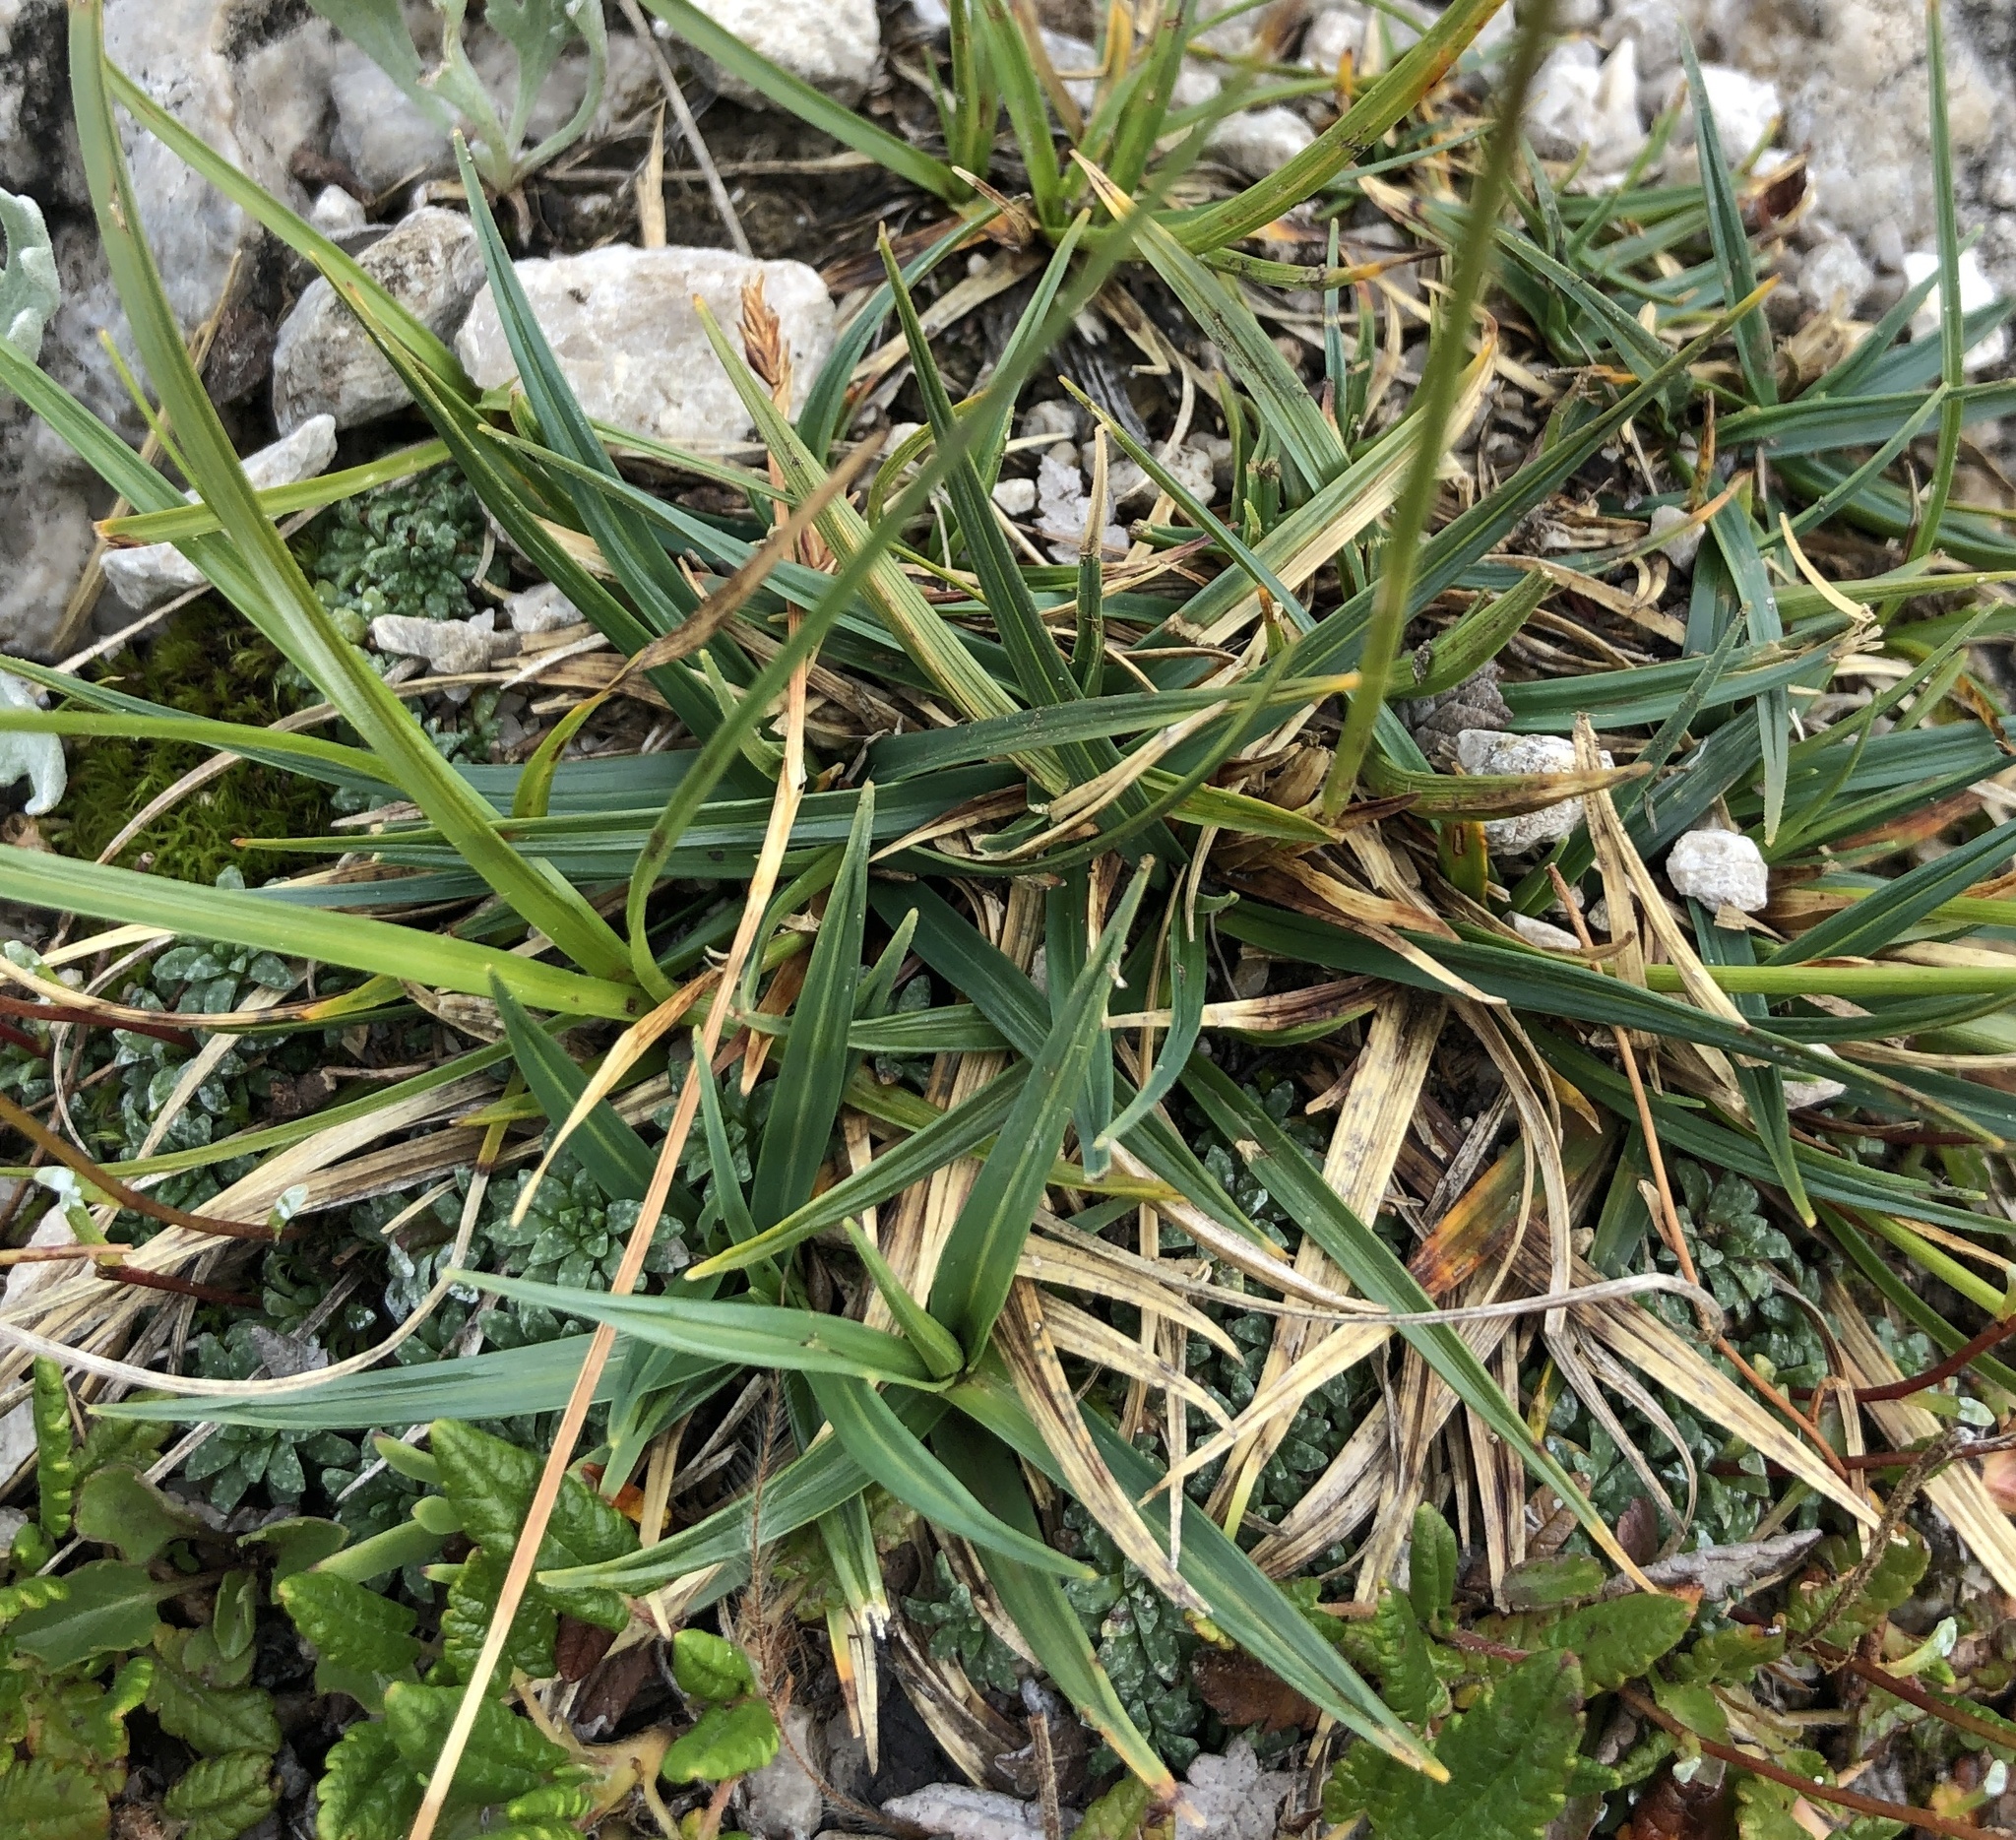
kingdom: Plantae
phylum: Tracheophyta
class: Magnoliopsida
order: Saxifragales
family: Saxifragaceae
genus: Saxifraga
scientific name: Saxifraga caesia
